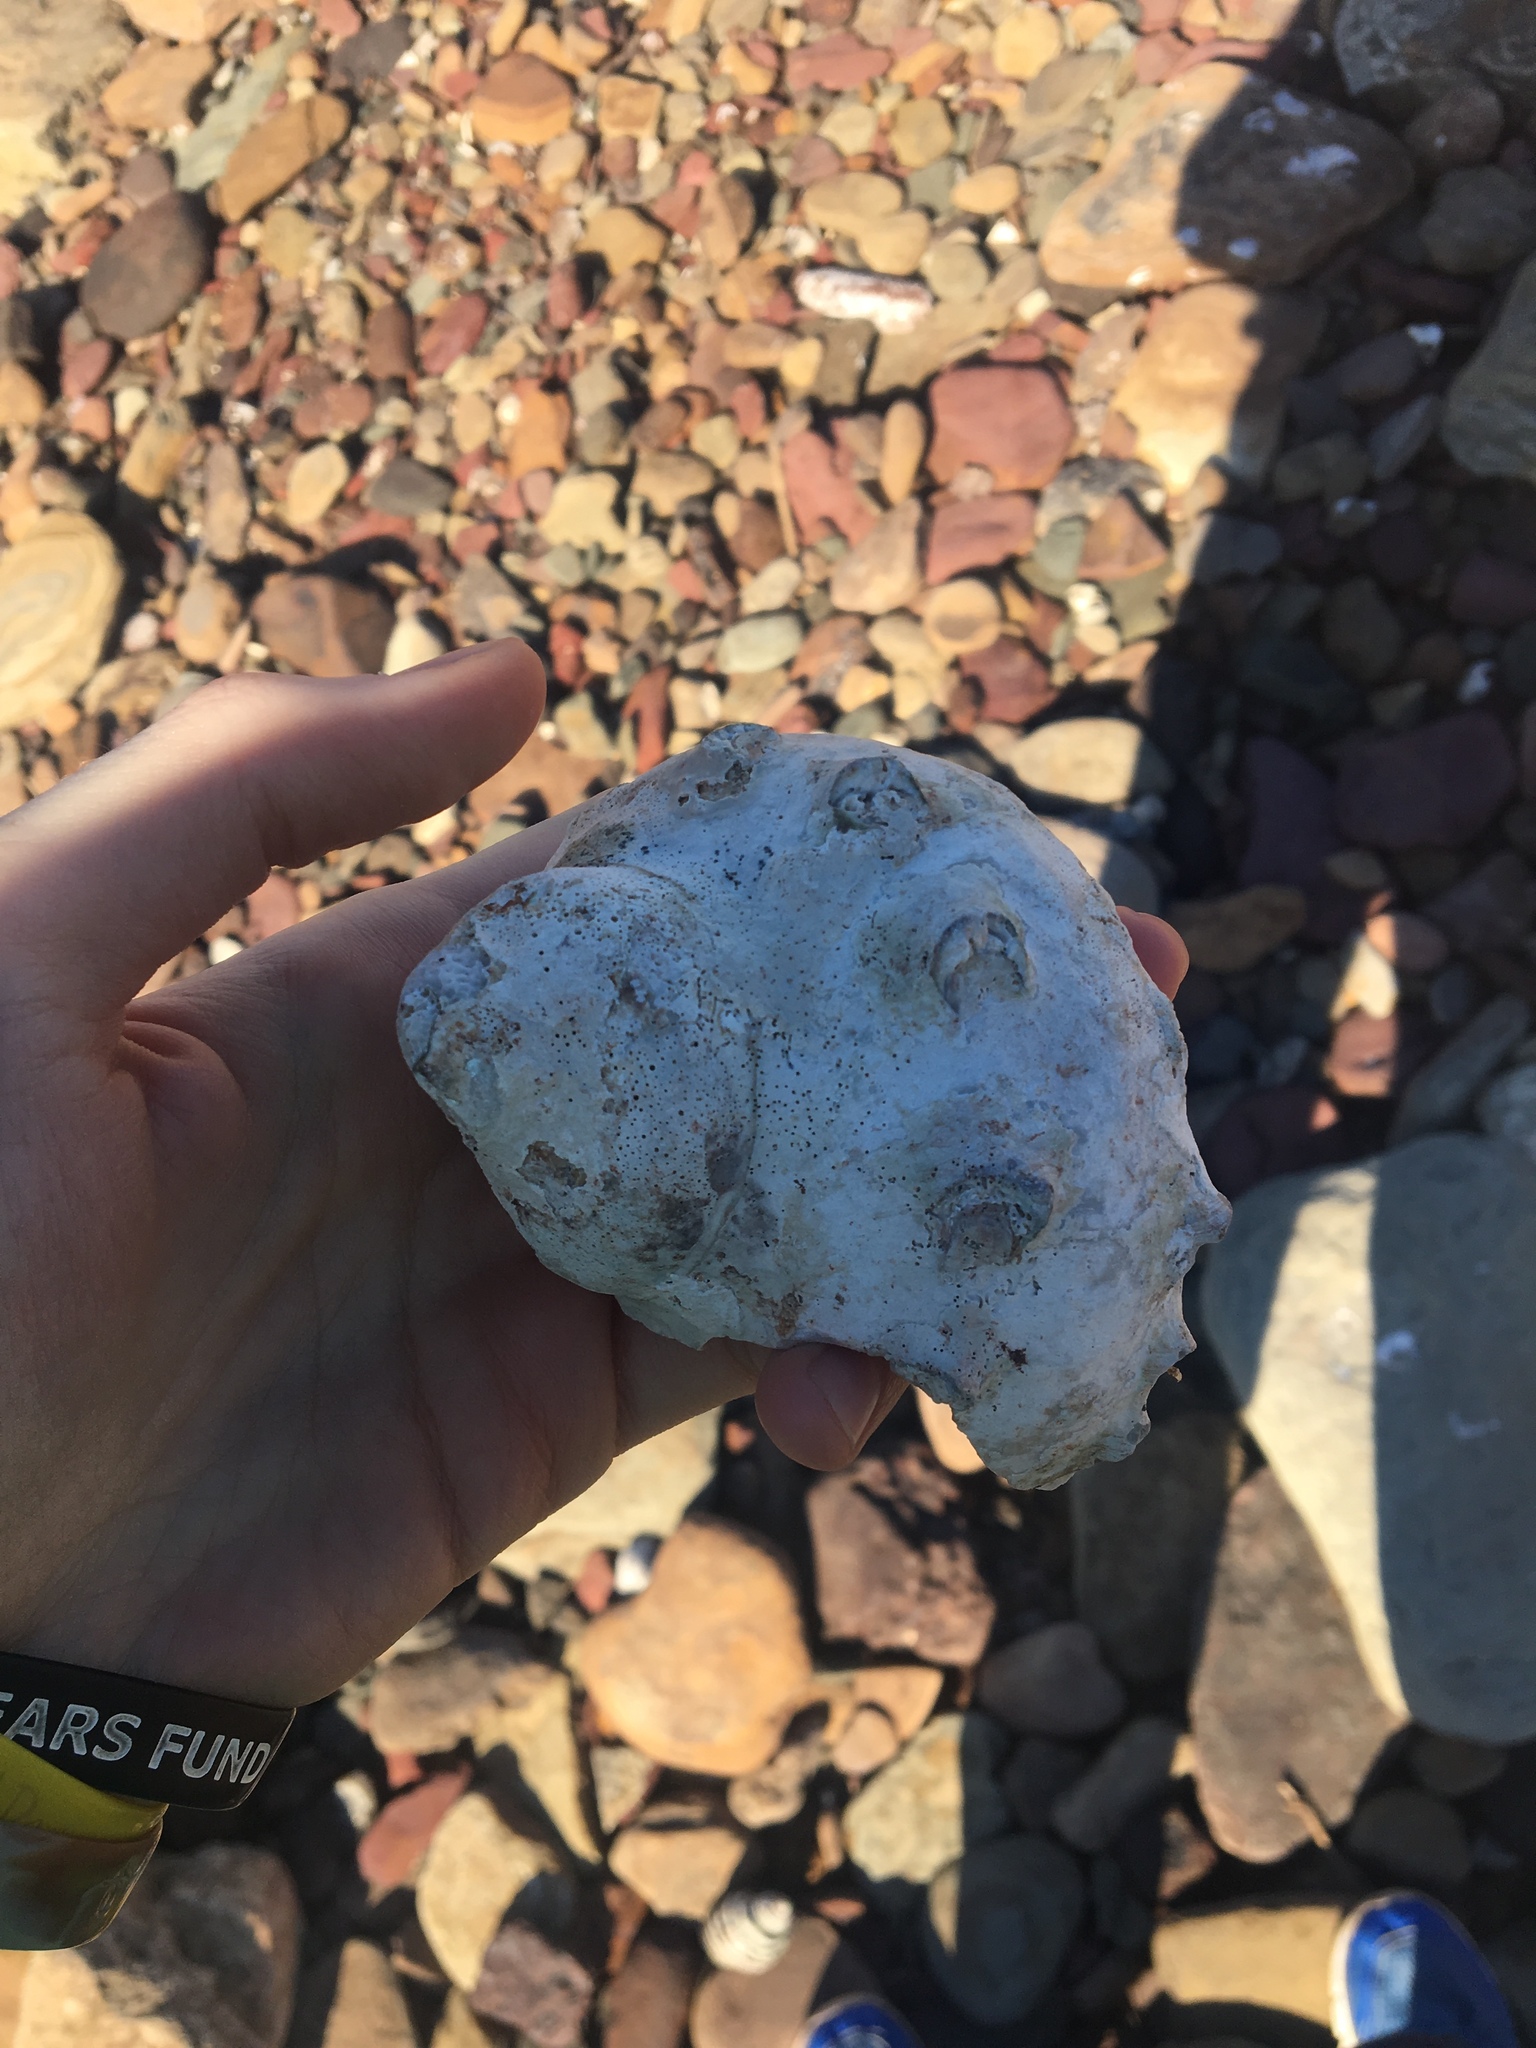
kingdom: Animalia
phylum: Mollusca
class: Gastropoda
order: Trochida
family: Turbinidae
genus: Turbo
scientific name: Turbo militaris
